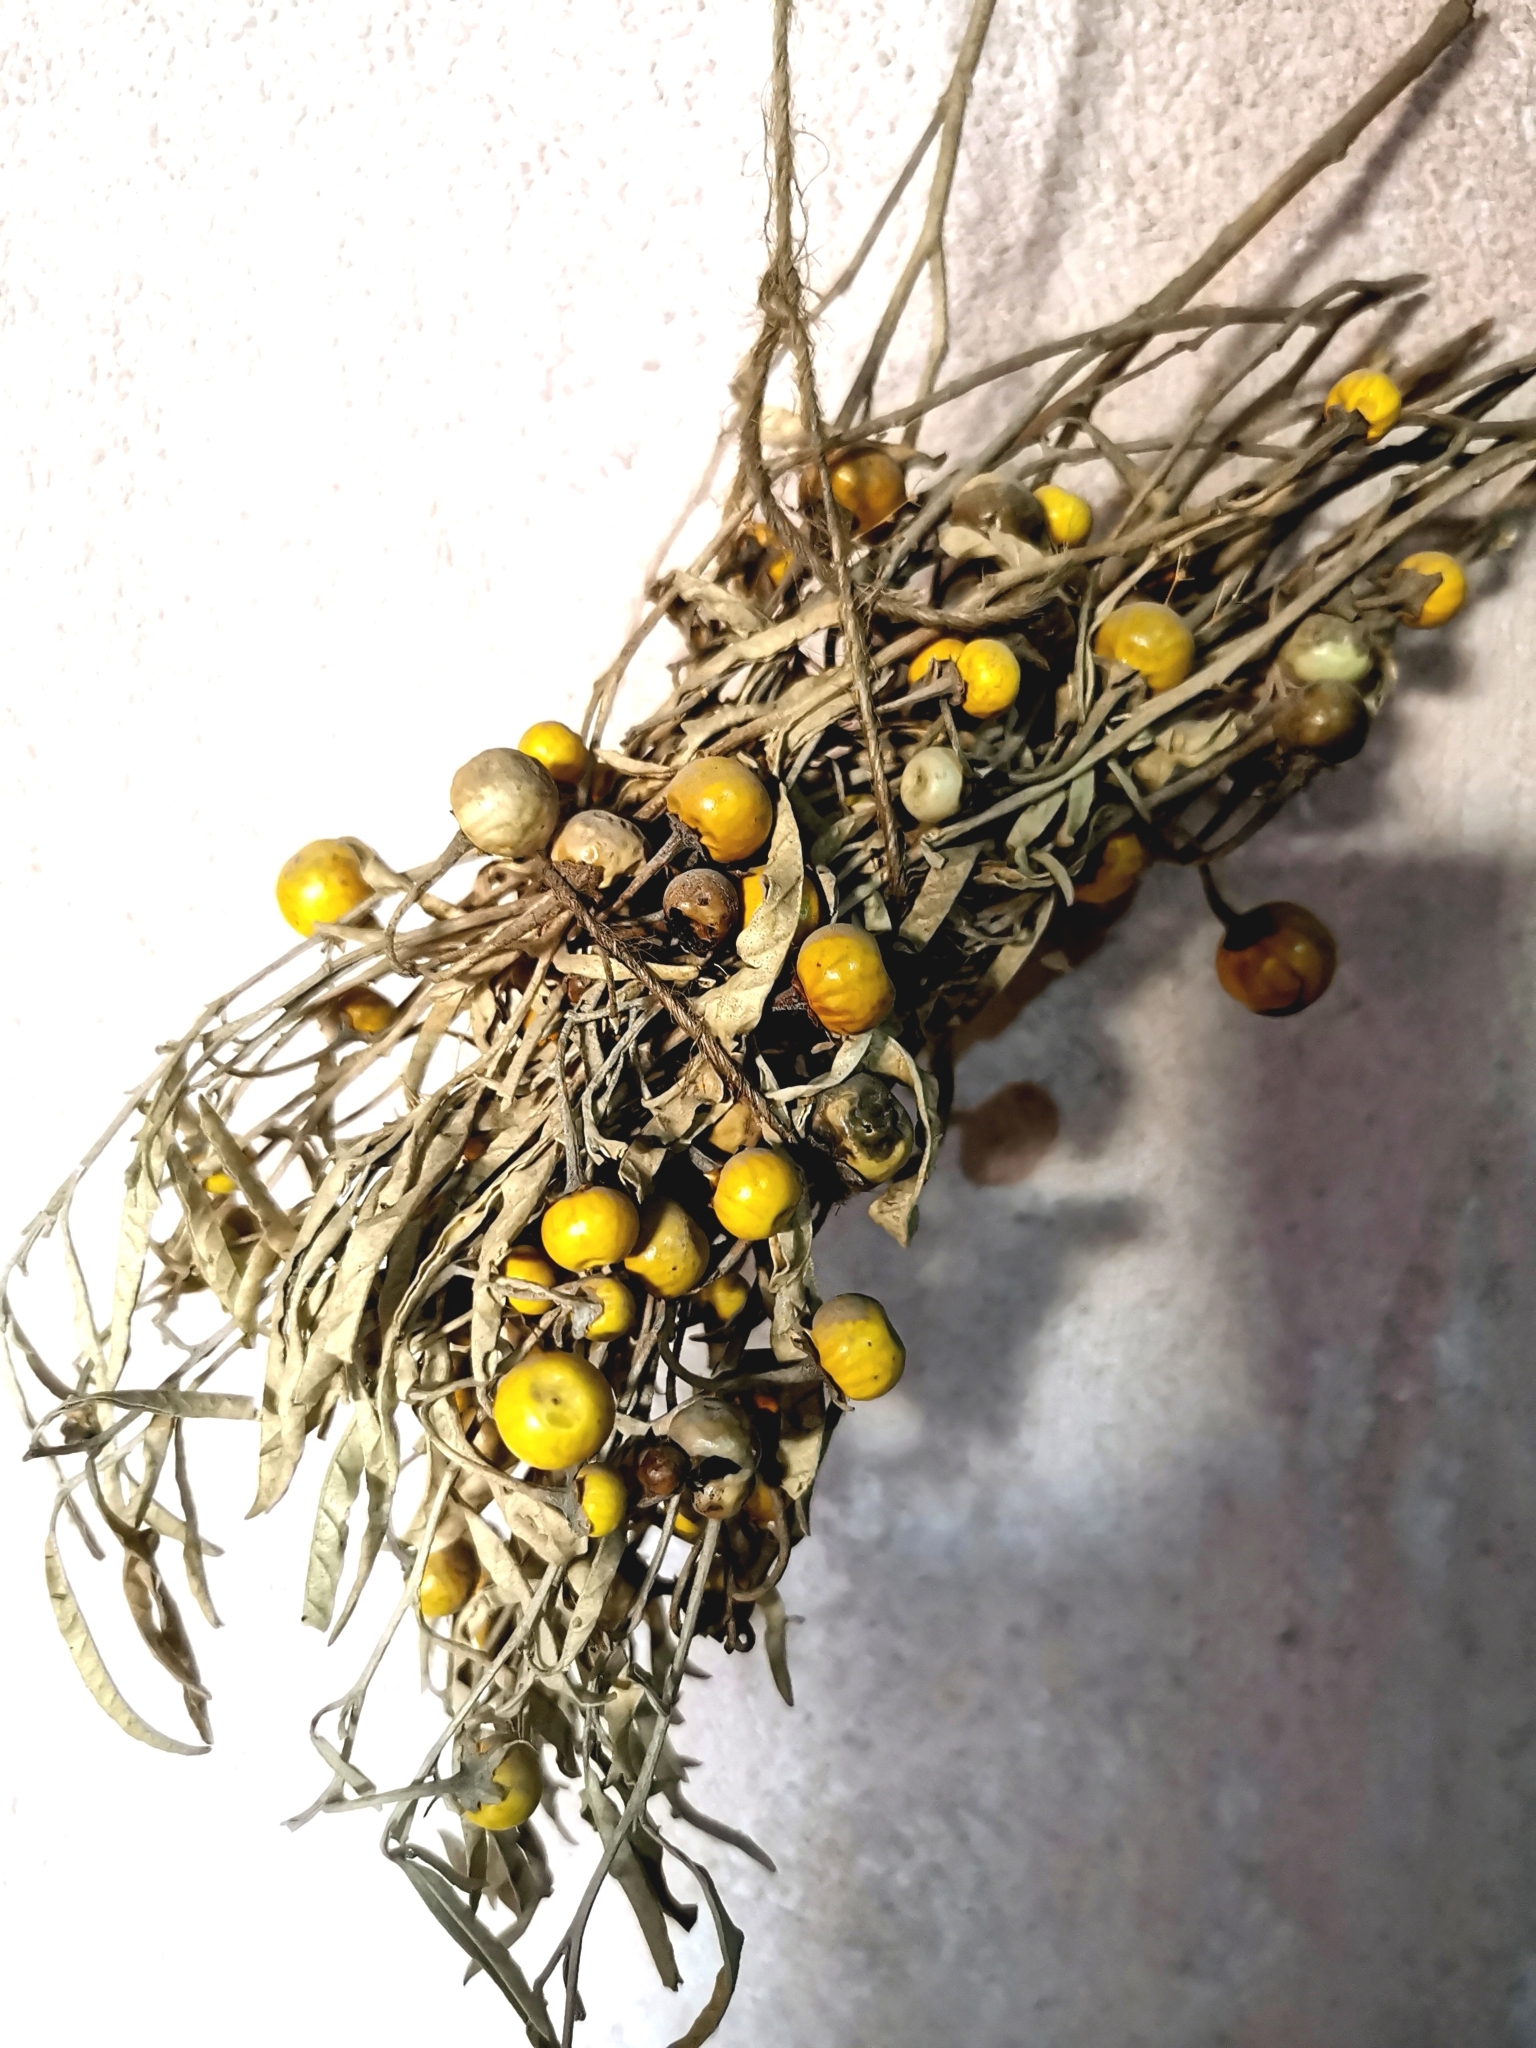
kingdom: Plantae
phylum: Tracheophyta
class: Magnoliopsida
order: Solanales
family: Solanaceae
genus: Solanum
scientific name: Solanum elaeagnifolium
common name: Silverleaf nightshade
